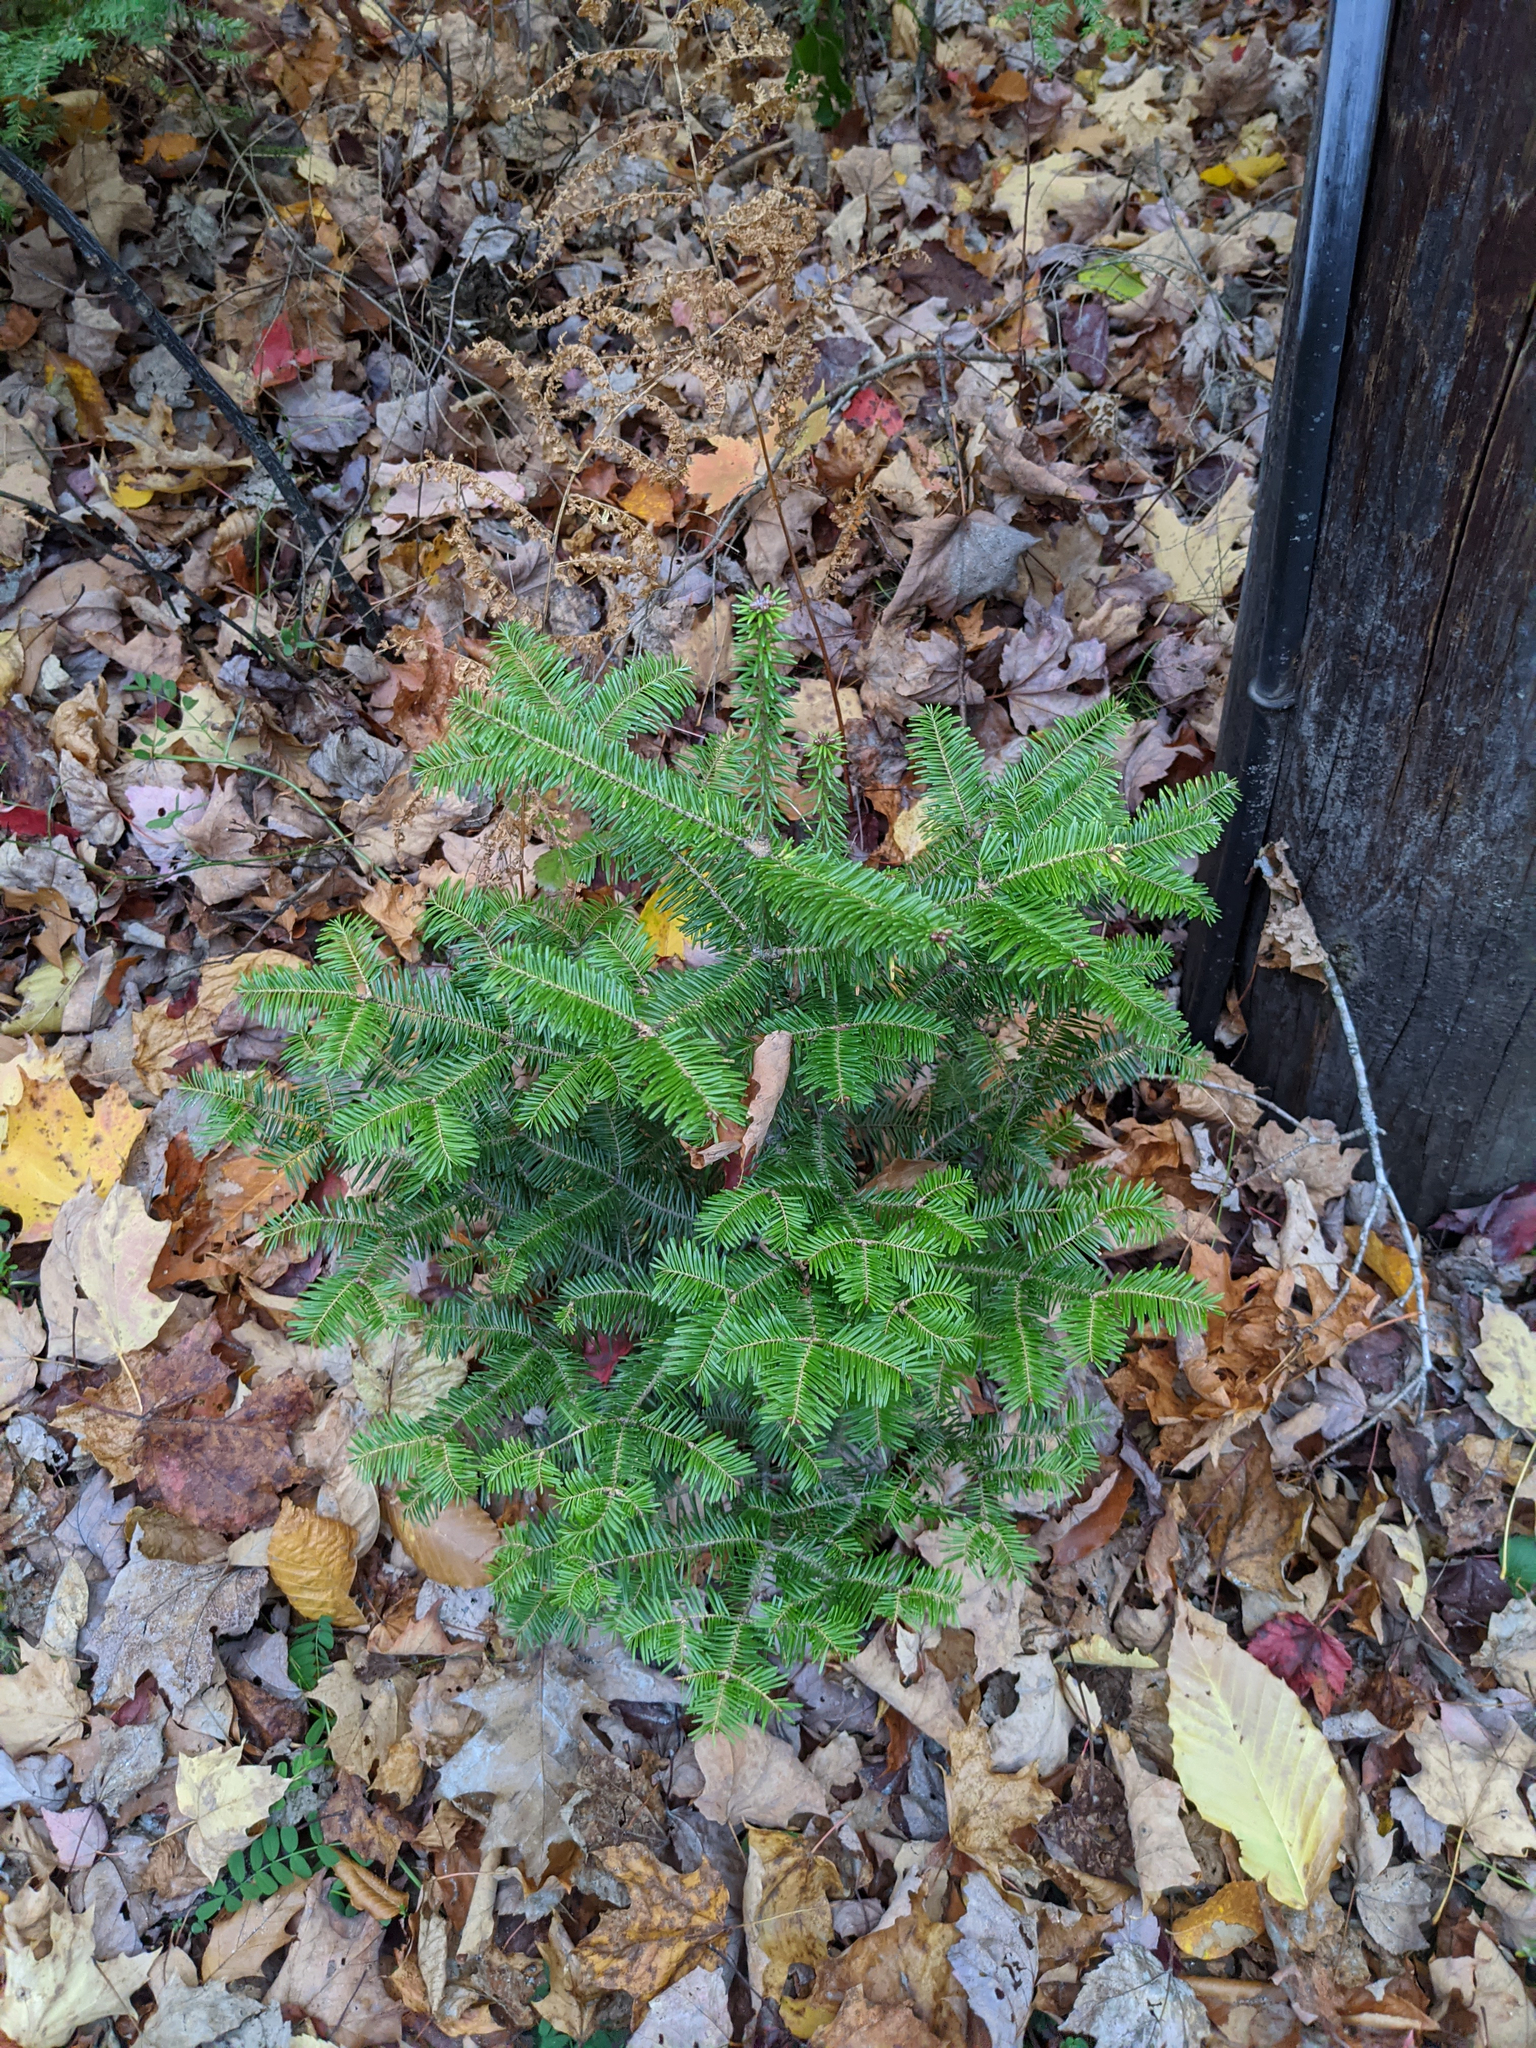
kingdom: Plantae
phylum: Tracheophyta
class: Pinopsida
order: Pinales
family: Pinaceae
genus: Abies
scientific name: Abies balsamea
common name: Balsam fir
